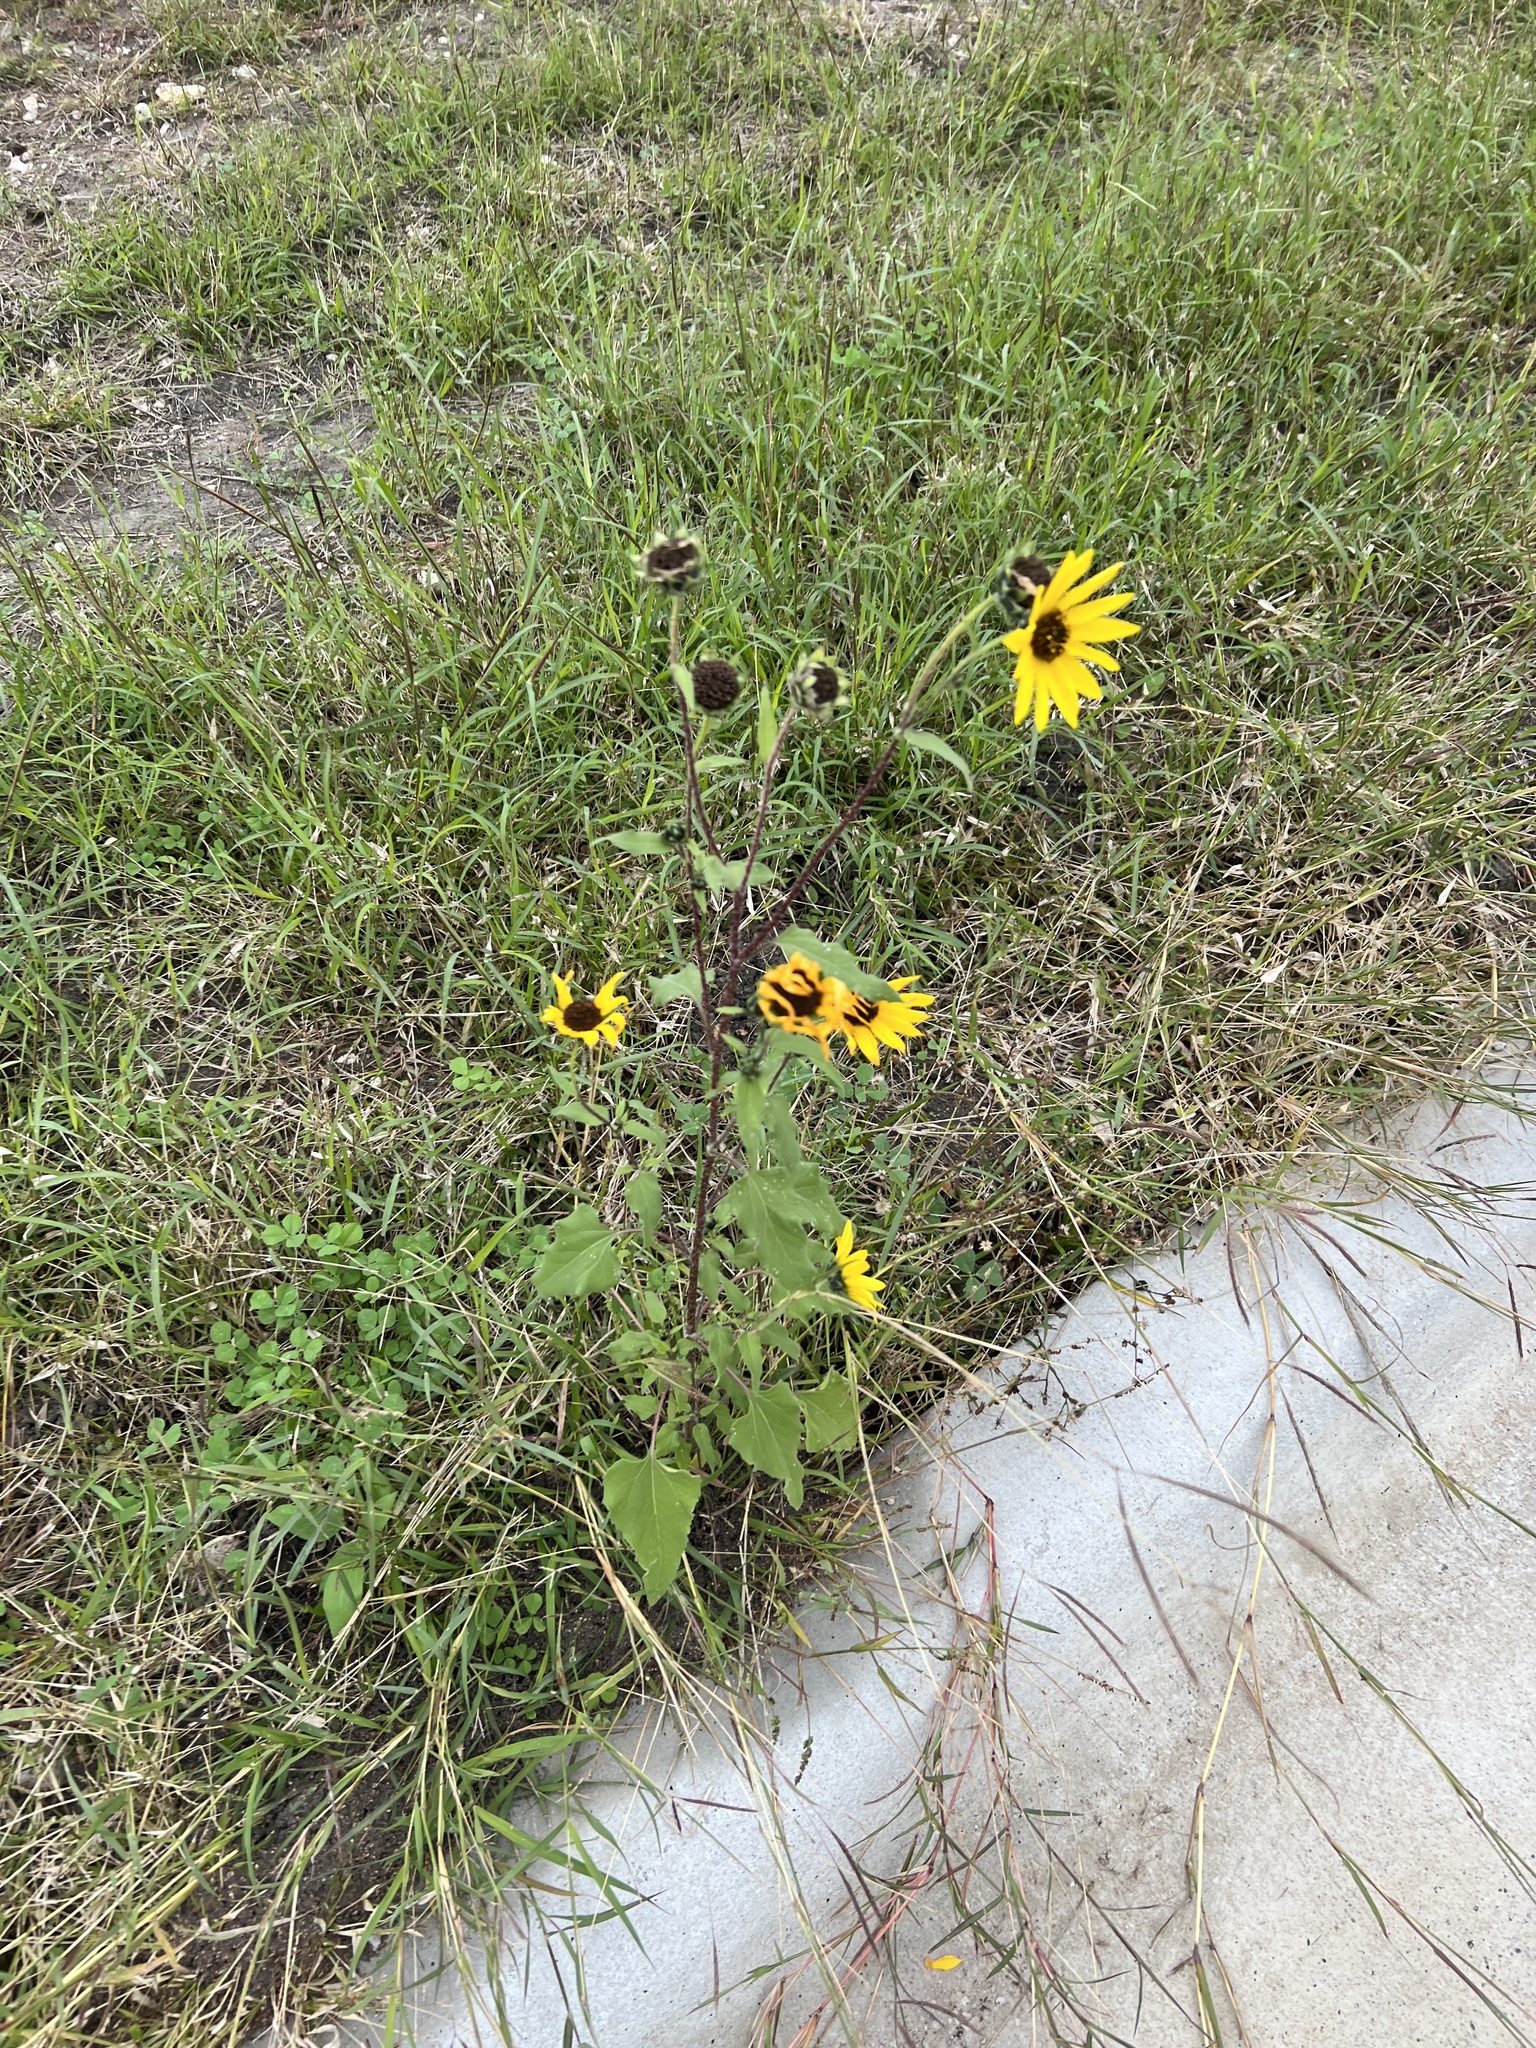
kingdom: Plantae
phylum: Tracheophyta
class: Magnoliopsida
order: Asterales
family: Asteraceae
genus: Helianthus
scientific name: Helianthus annuus
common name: Sunflower
